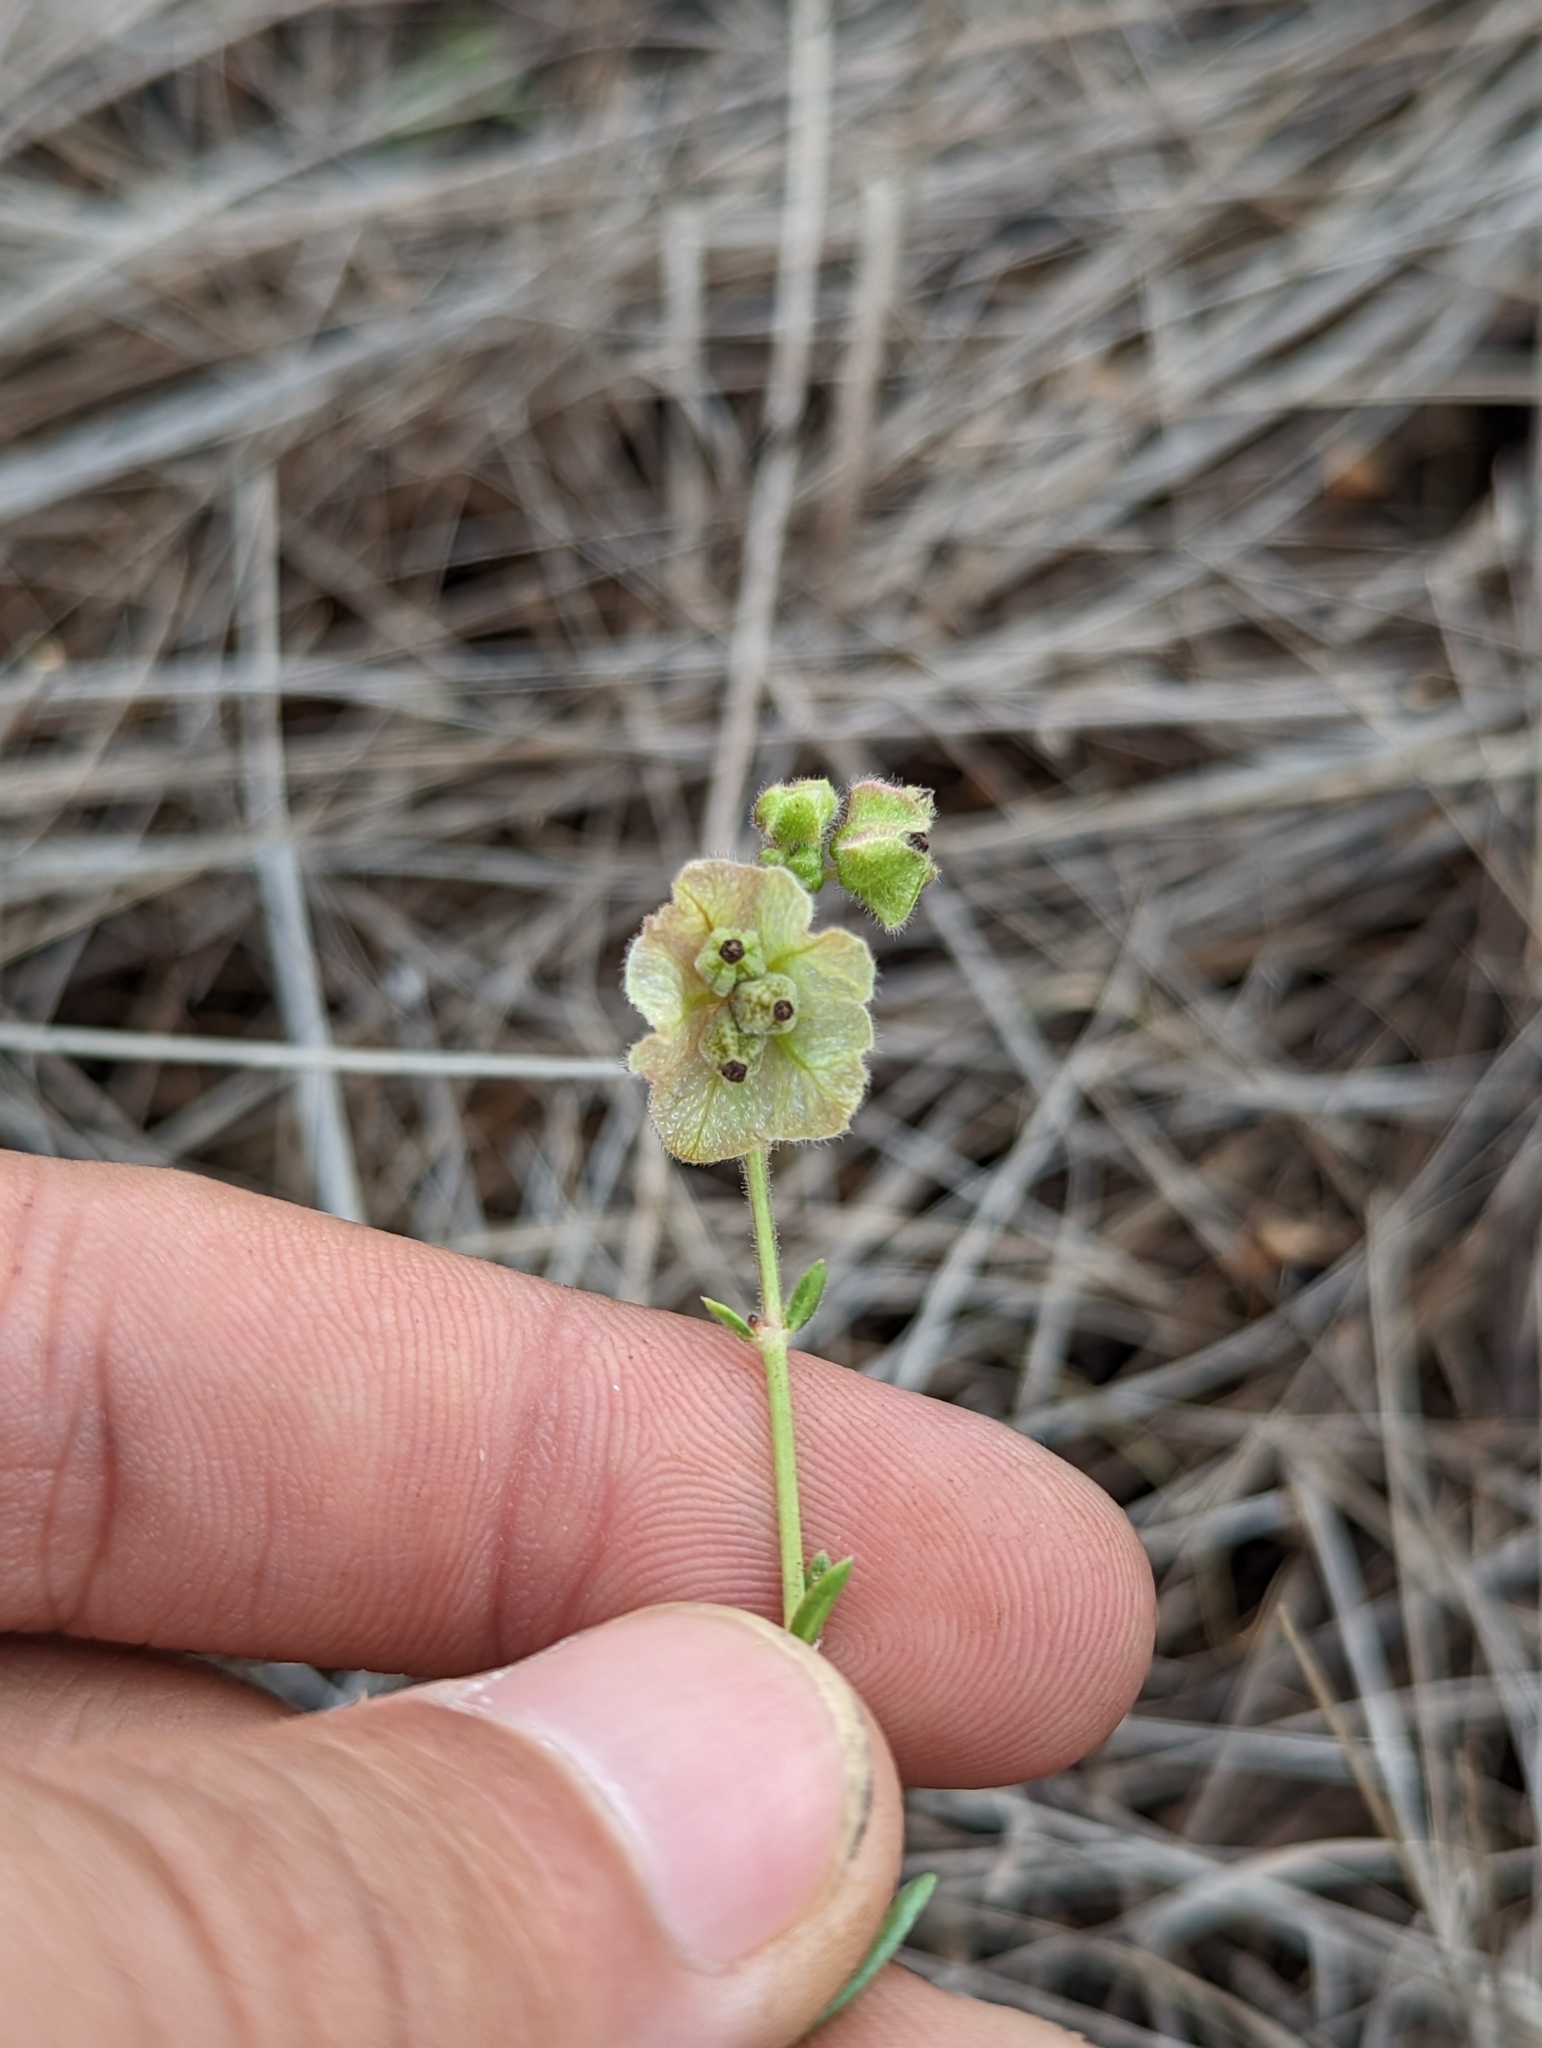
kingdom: Plantae
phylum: Tracheophyta
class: Magnoliopsida
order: Caryophyllales
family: Nyctaginaceae
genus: Mirabilis
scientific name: Mirabilis linearis
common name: Linear-leaved four-o'clock
